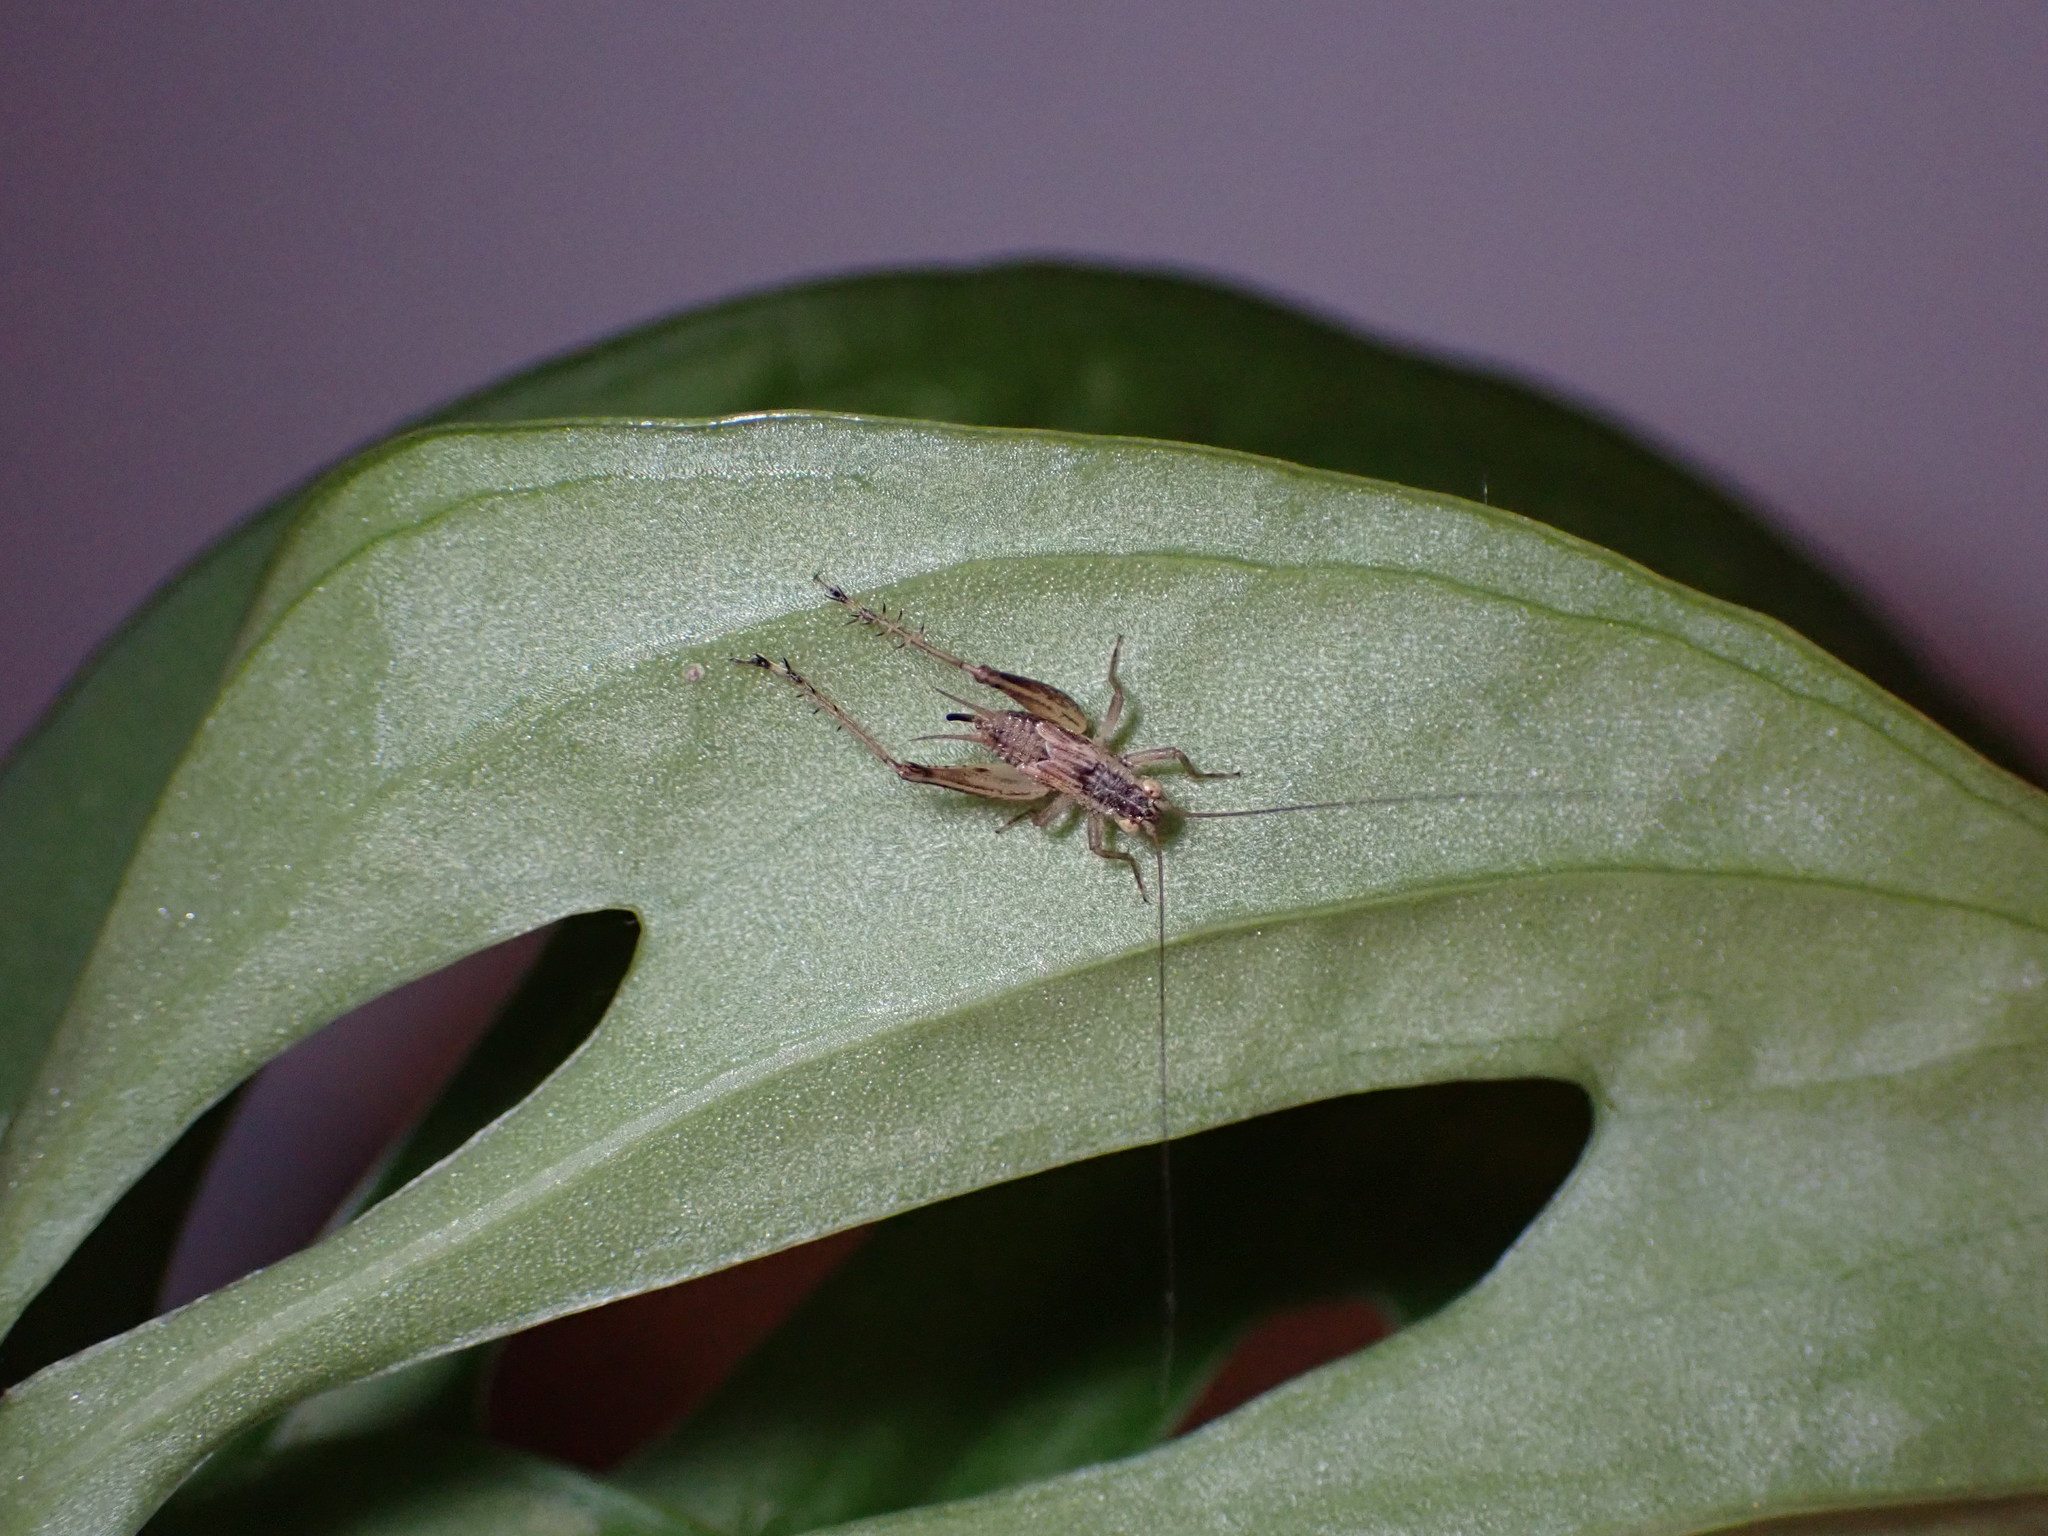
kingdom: Animalia
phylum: Arthropoda
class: Insecta
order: Orthoptera
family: Trigonidiidae
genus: Metioche
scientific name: Metioche maorica
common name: New zealand trig
